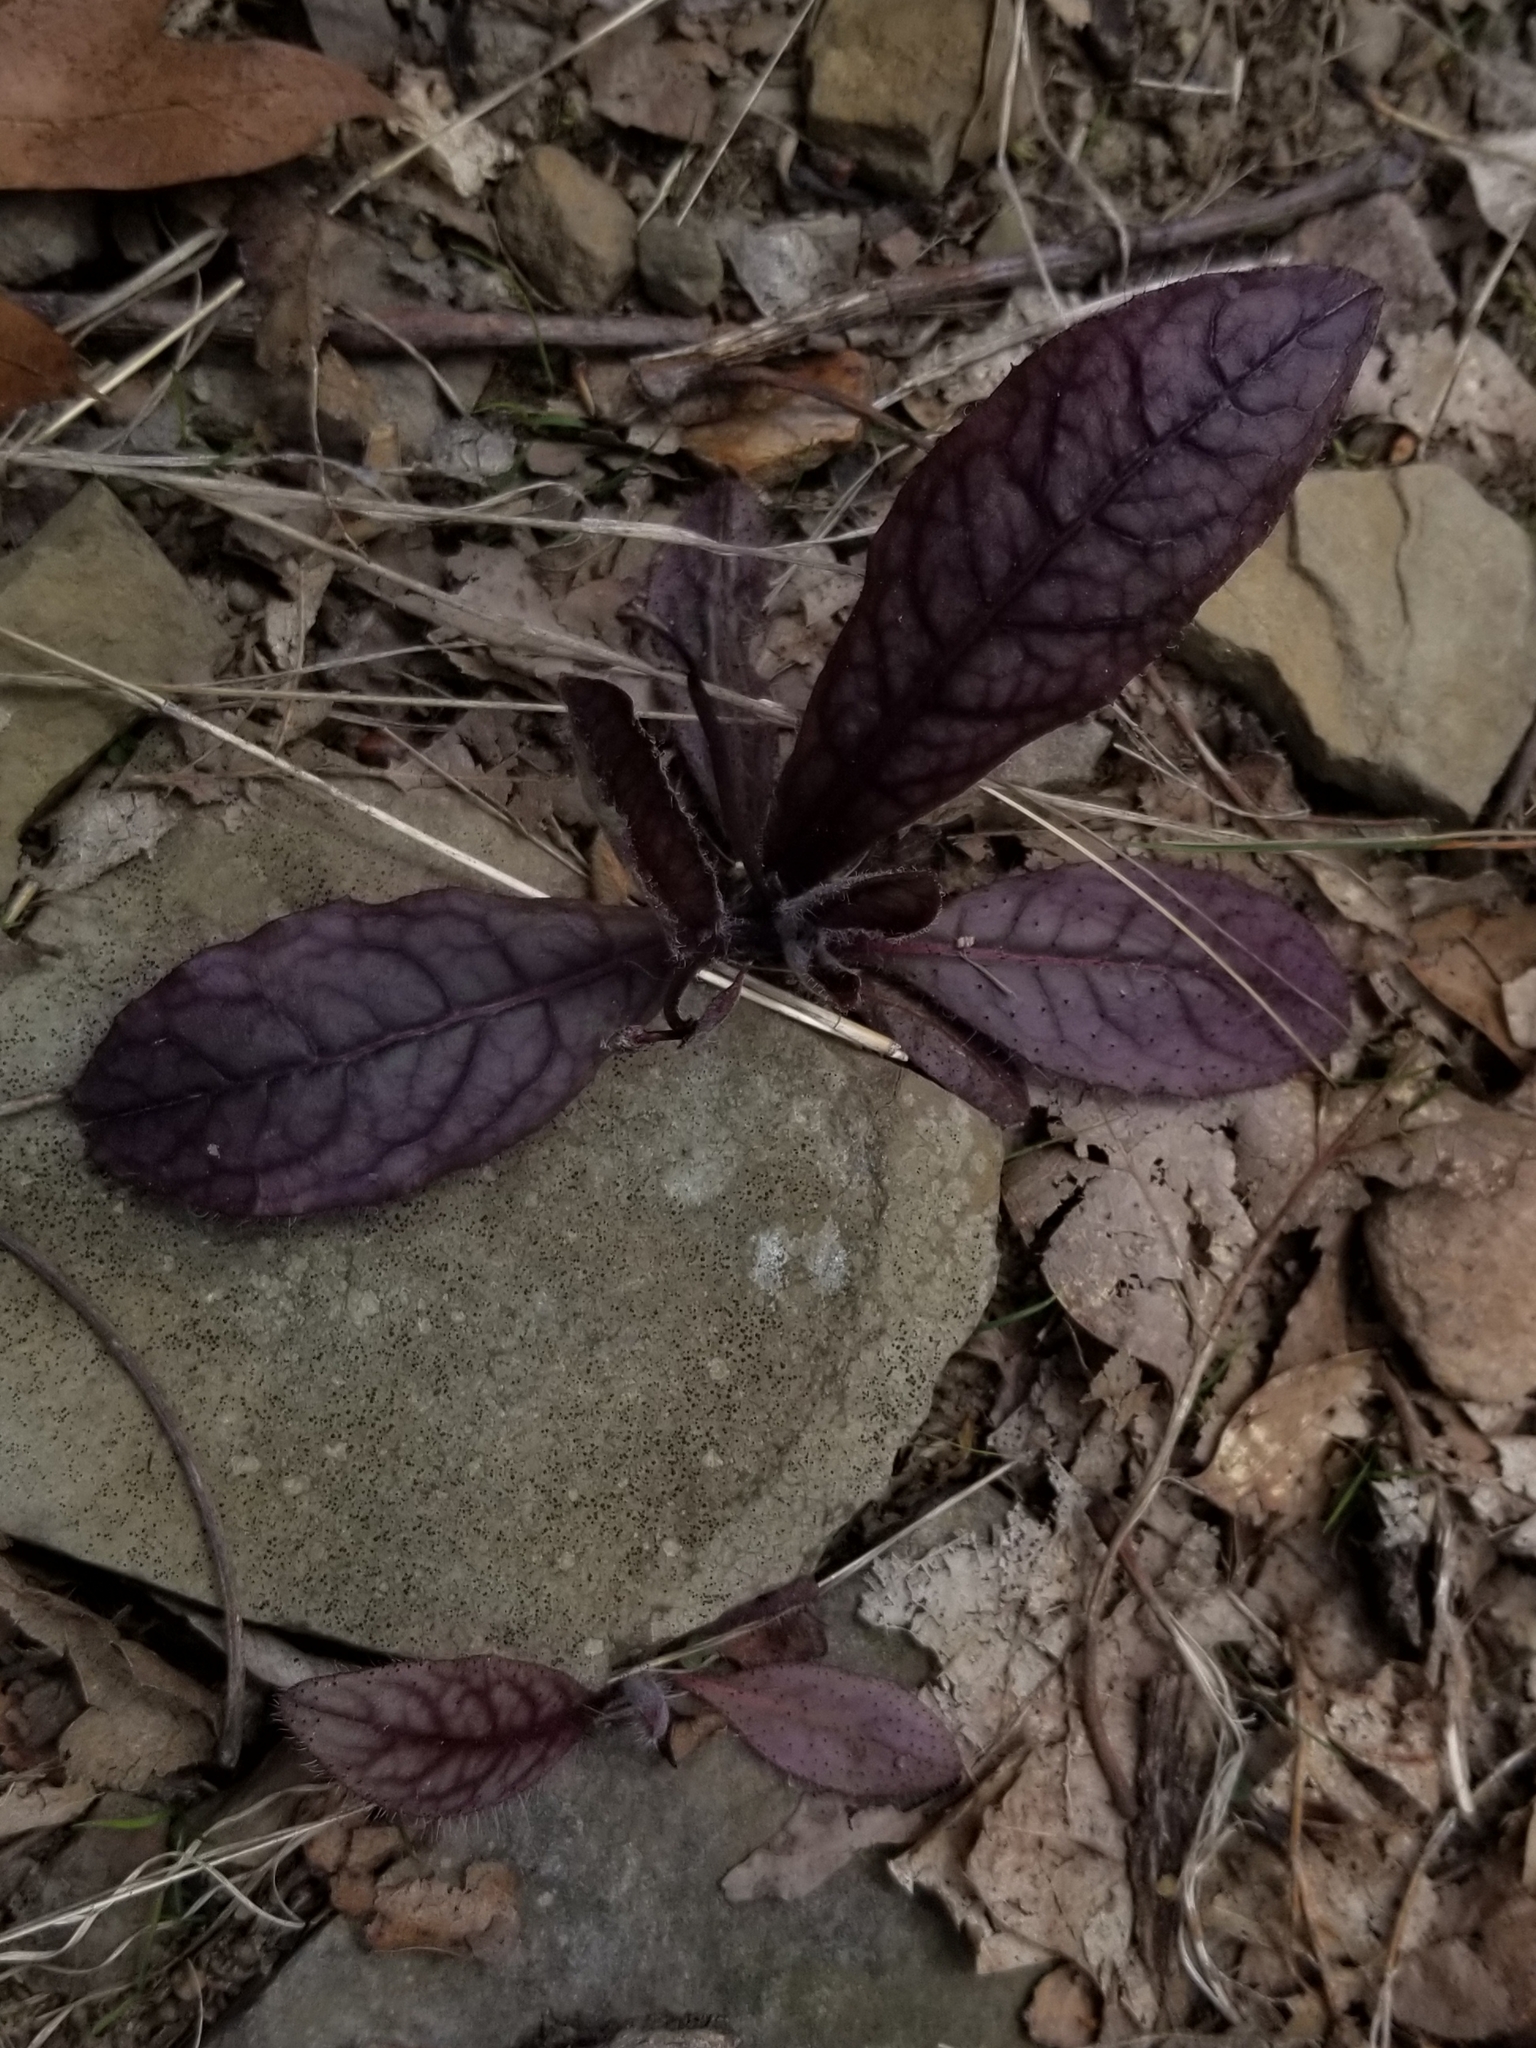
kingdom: Plantae
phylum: Tracheophyta
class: Magnoliopsida
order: Asterales
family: Asteraceae
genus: Hieracium
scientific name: Hieracium venosum
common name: Rattlesnake hawkweed
